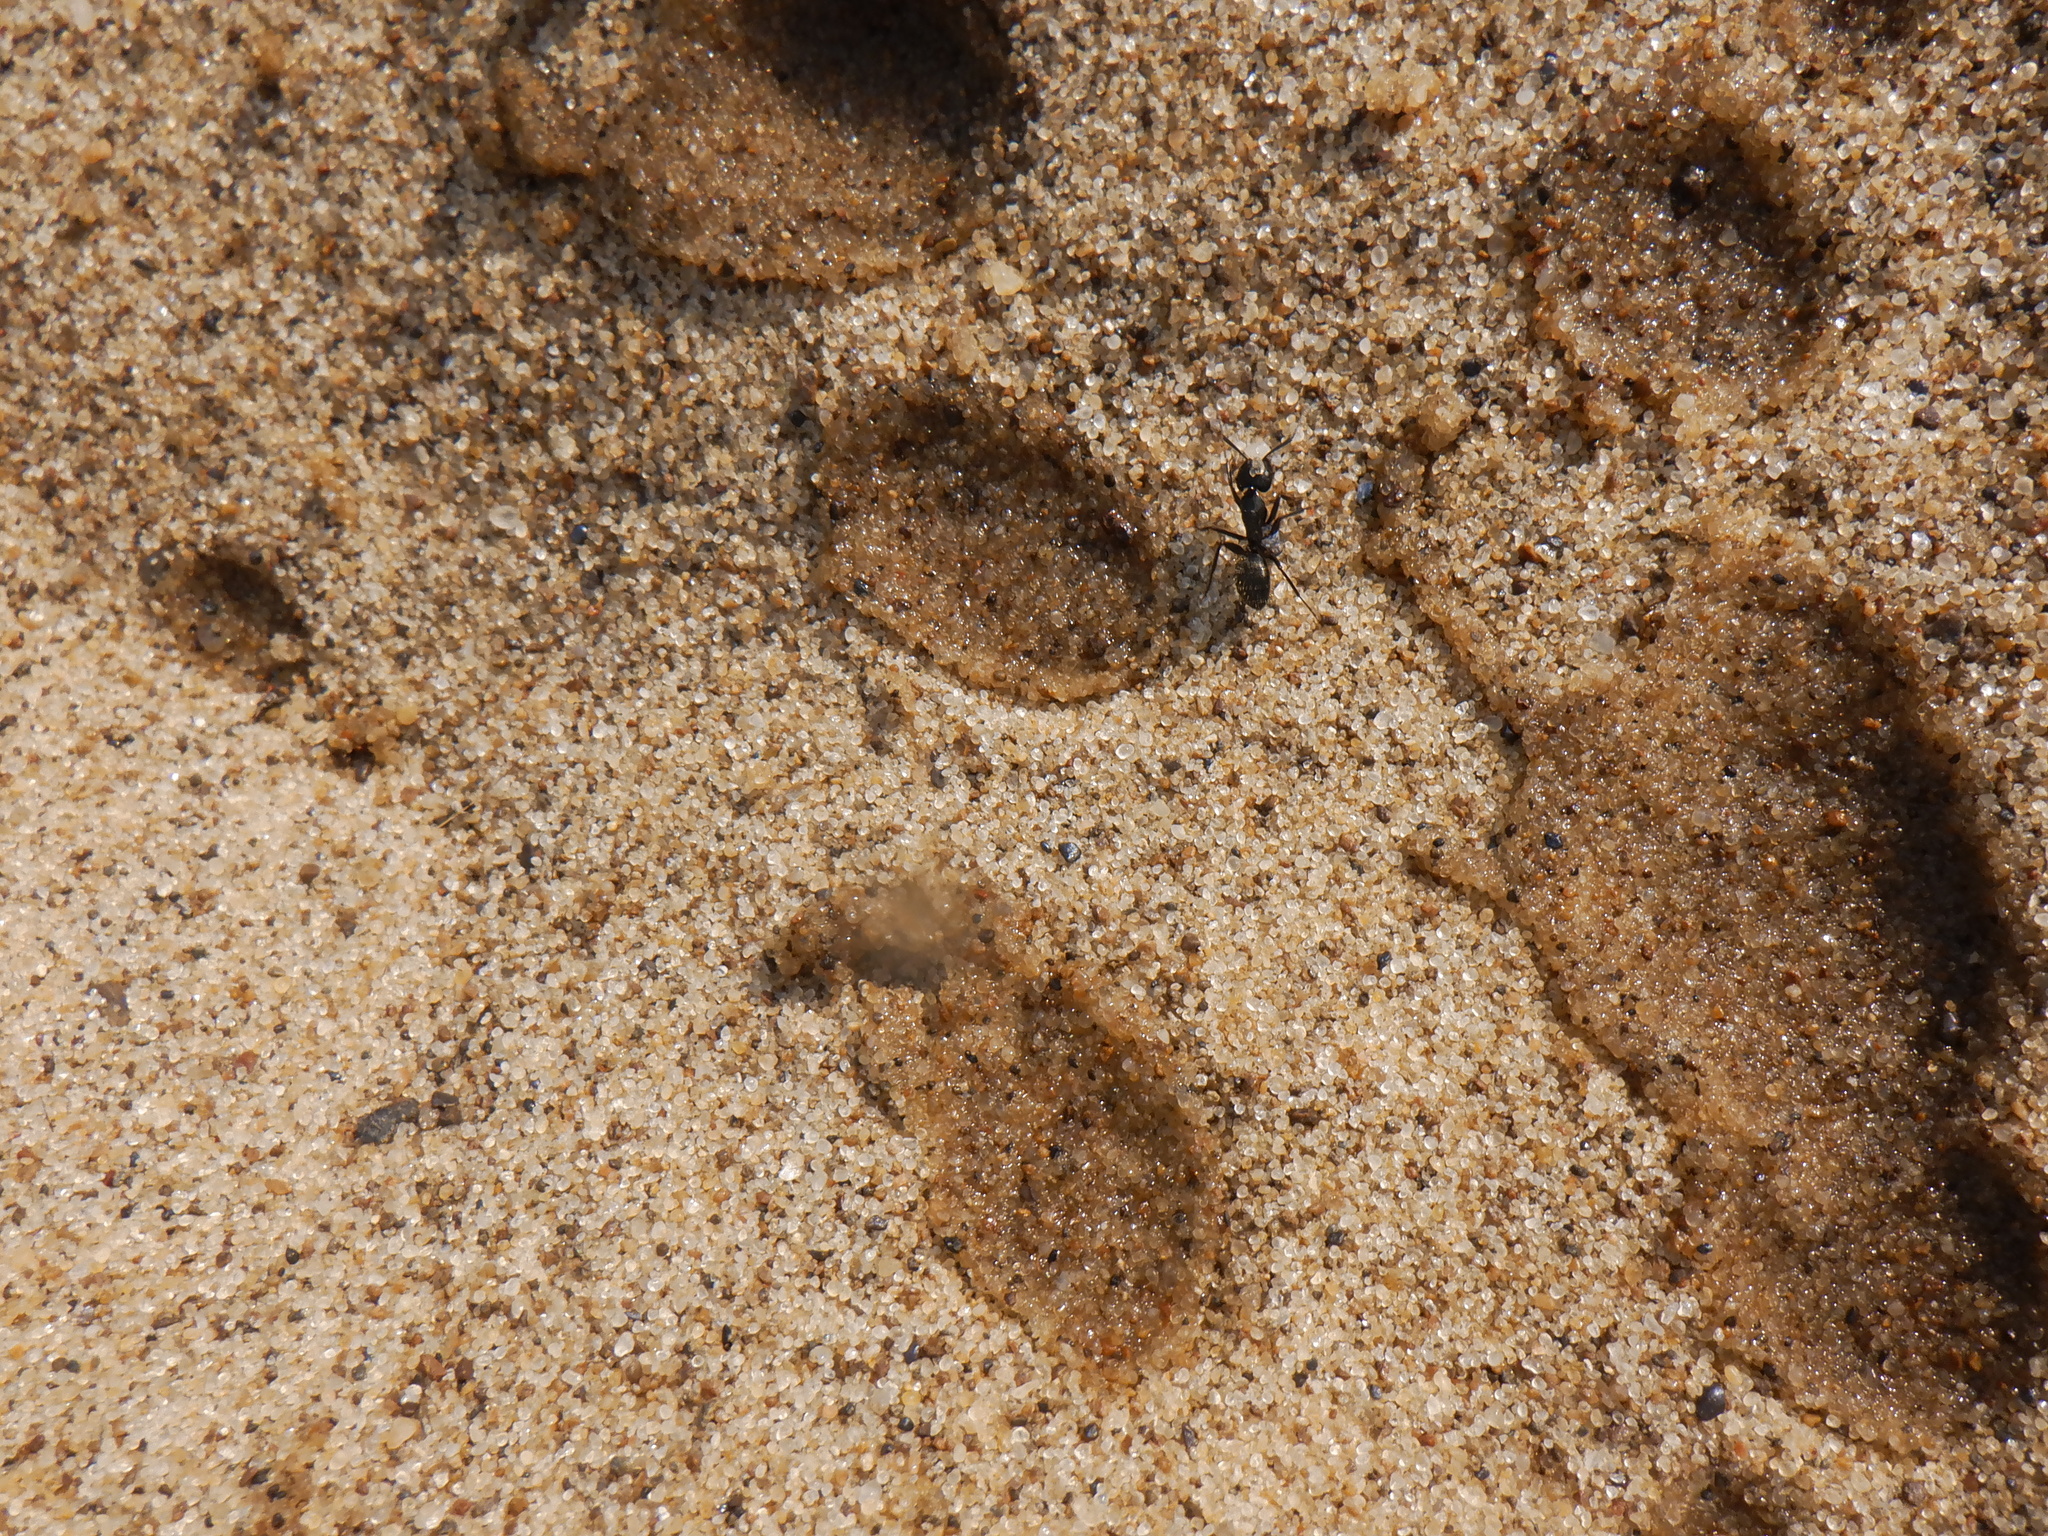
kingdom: Animalia
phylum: Arthropoda
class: Insecta
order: Hymenoptera
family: Formicidae
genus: Camponotus
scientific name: Camponotus pennsylvanicus
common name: Black carpenter ant
